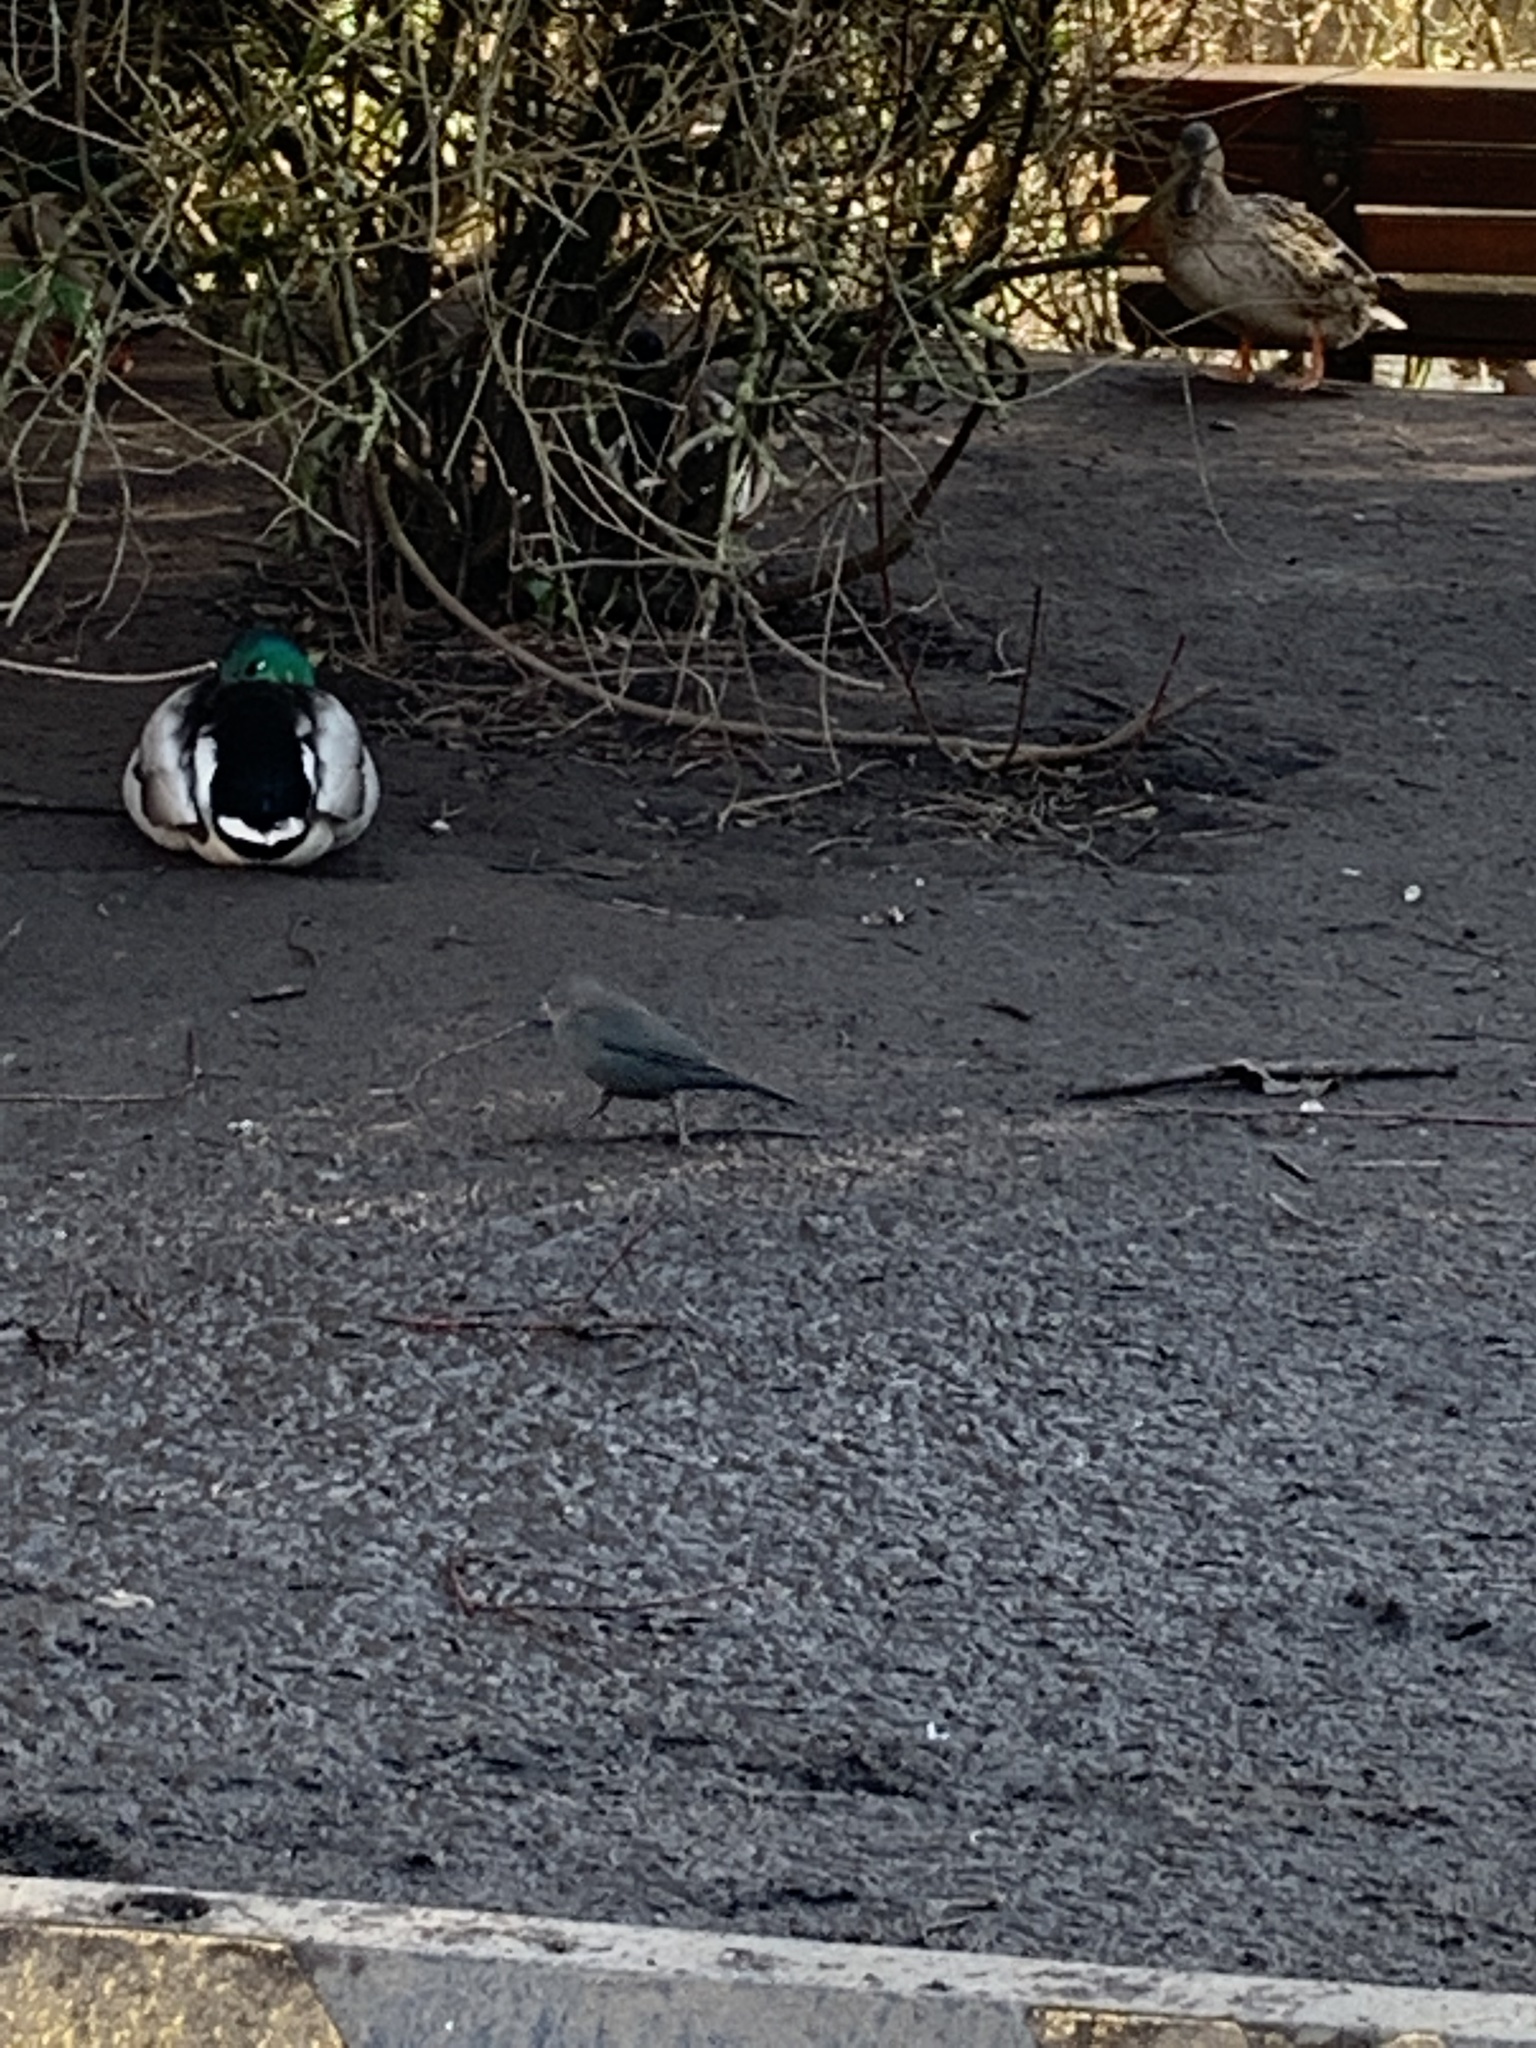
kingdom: Animalia
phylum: Chordata
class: Aves
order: Passeriformes
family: Icteridae
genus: Euphagus
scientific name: Euphagus cyanocephalus
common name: Brewer's blackbird
